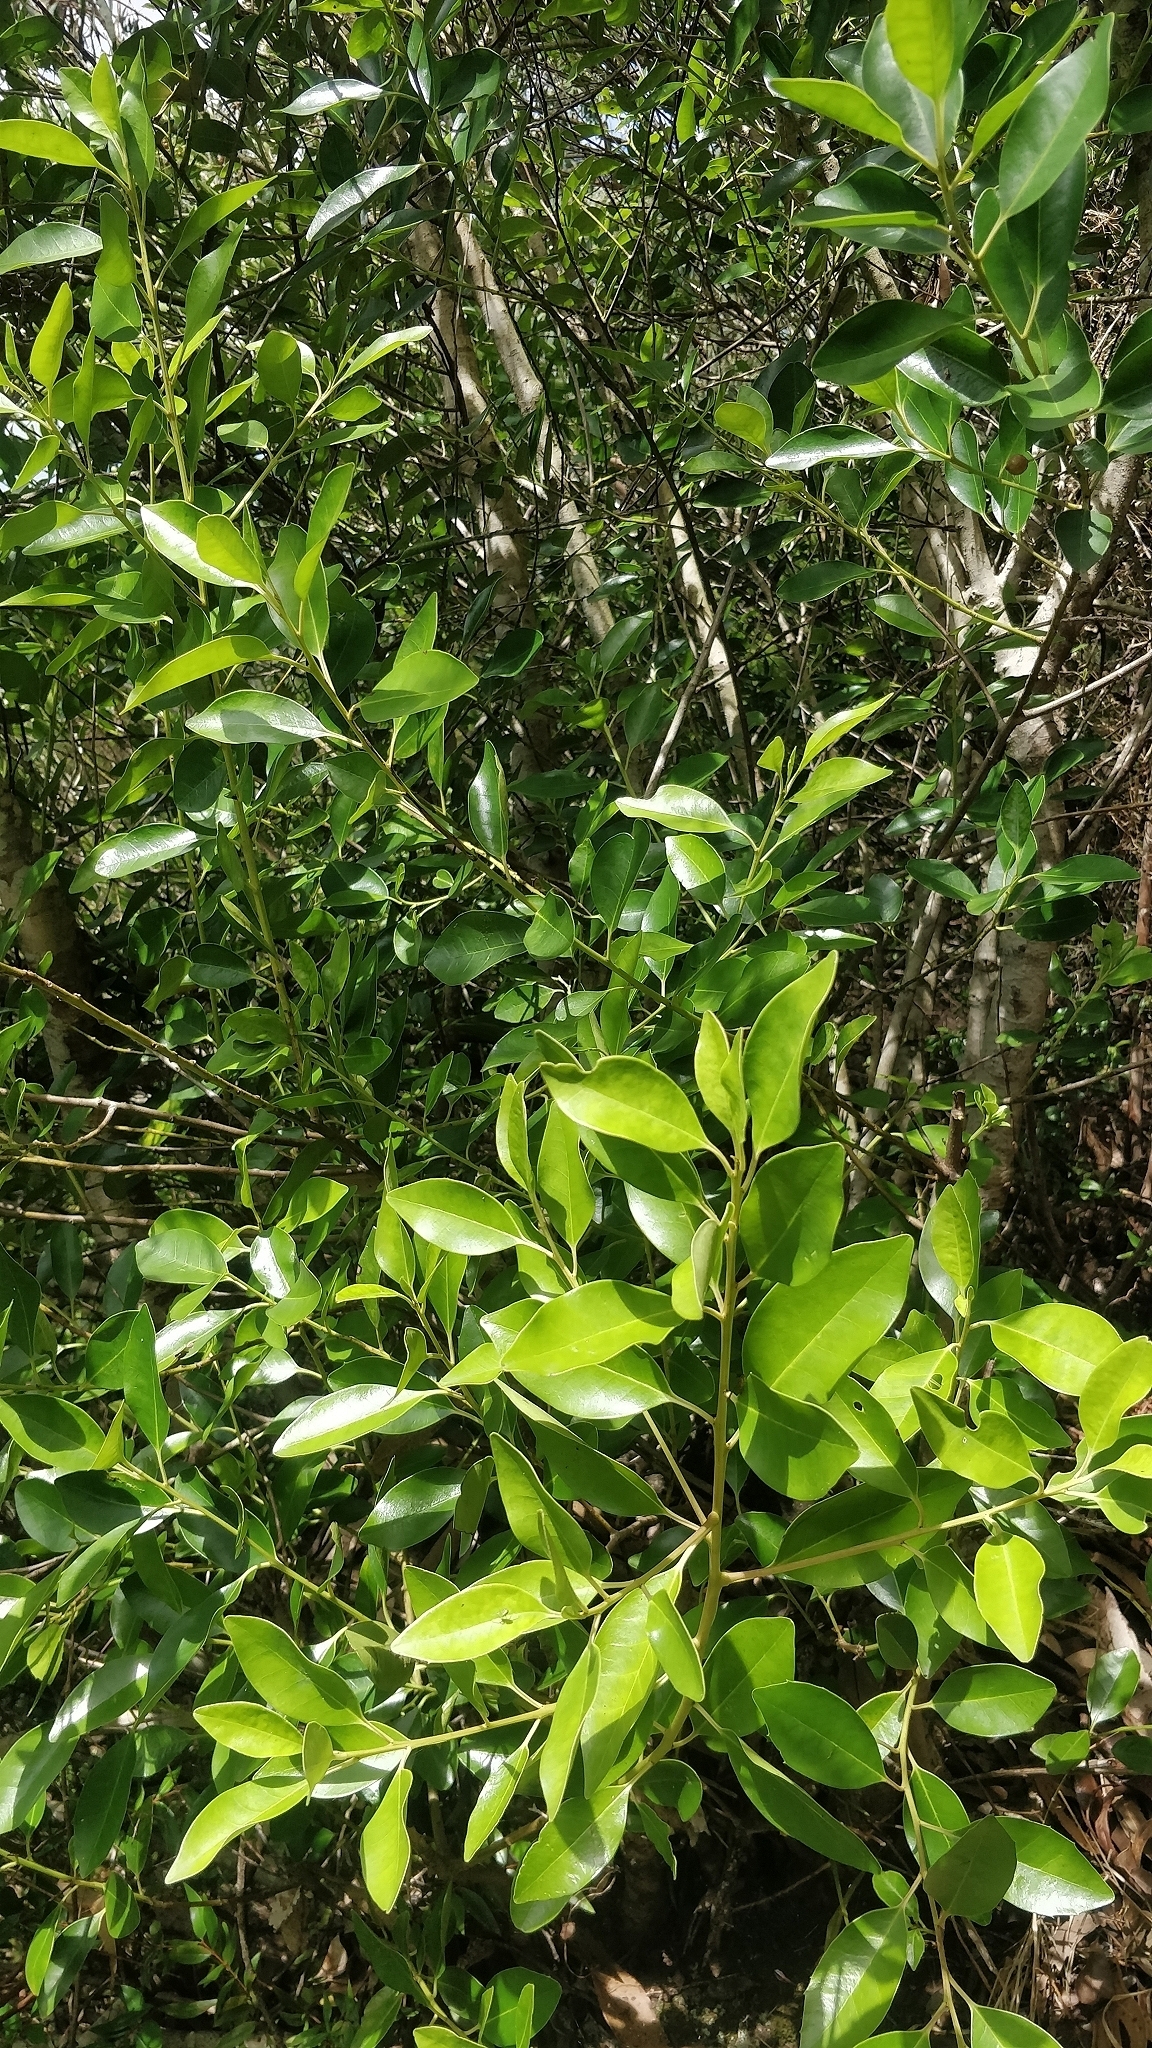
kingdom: Plantae
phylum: Tracheophyta
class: Magnoliopsida
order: Aquifoliales
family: Aquifoliaceae
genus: Ilex
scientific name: Ilex canariensis
